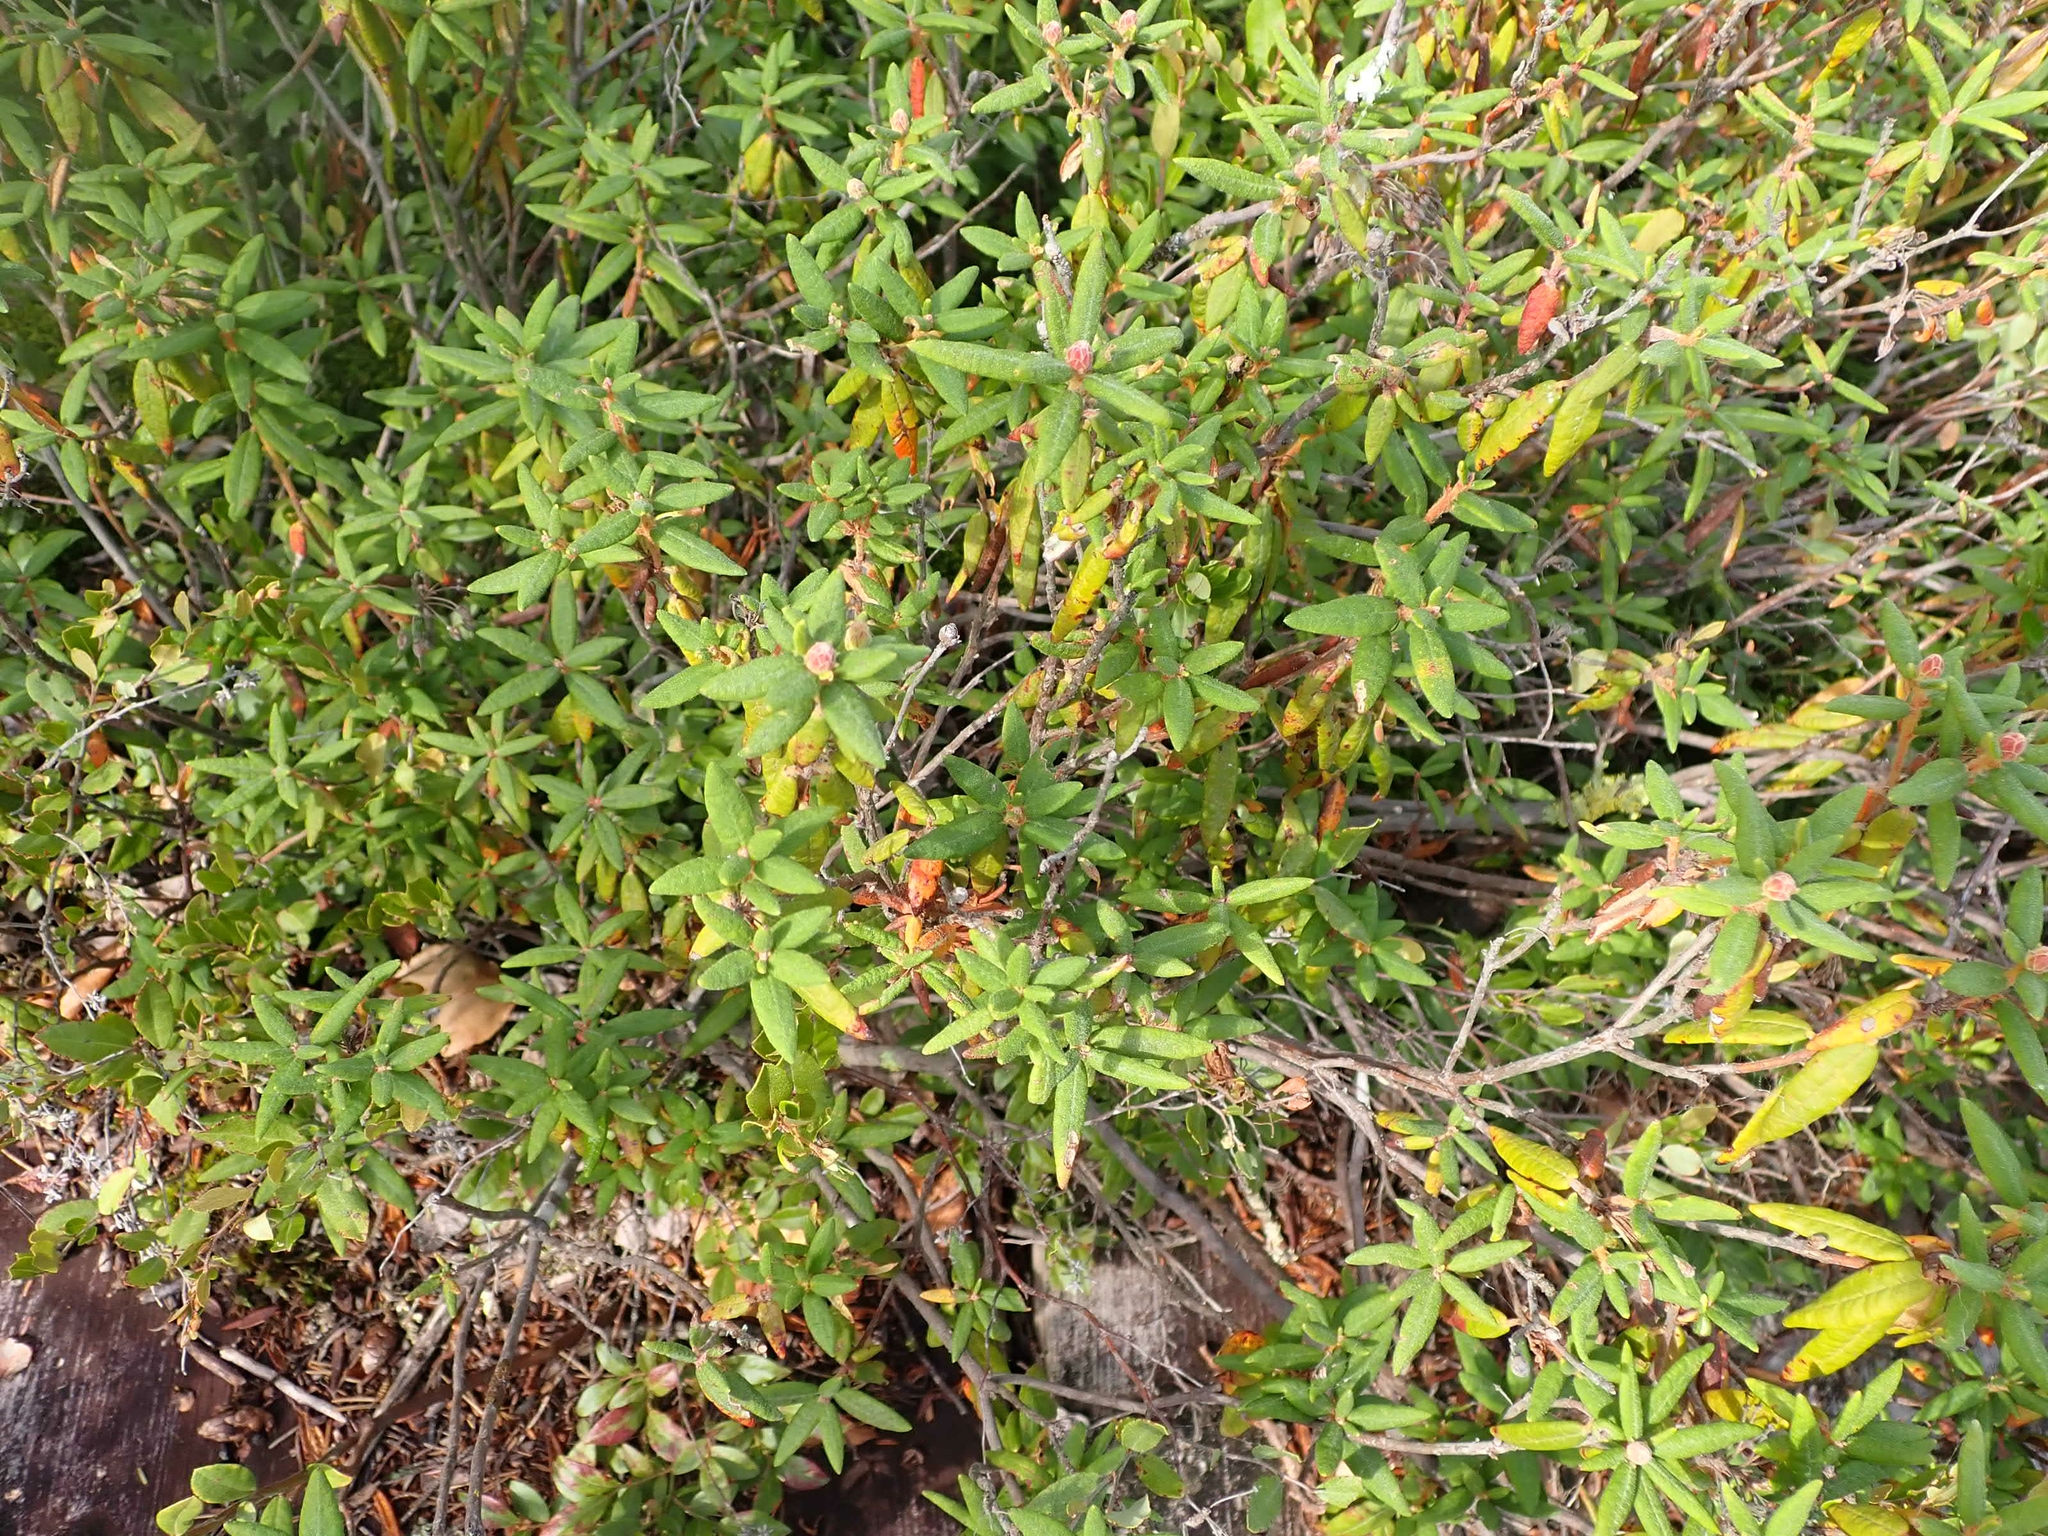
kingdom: Plantae
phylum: Tracheophyta
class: Magnoliopsida
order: Ericales
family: Ericaceae
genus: Rhododendron
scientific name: Rhododendron groenlandicum
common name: Bog labrador tea
